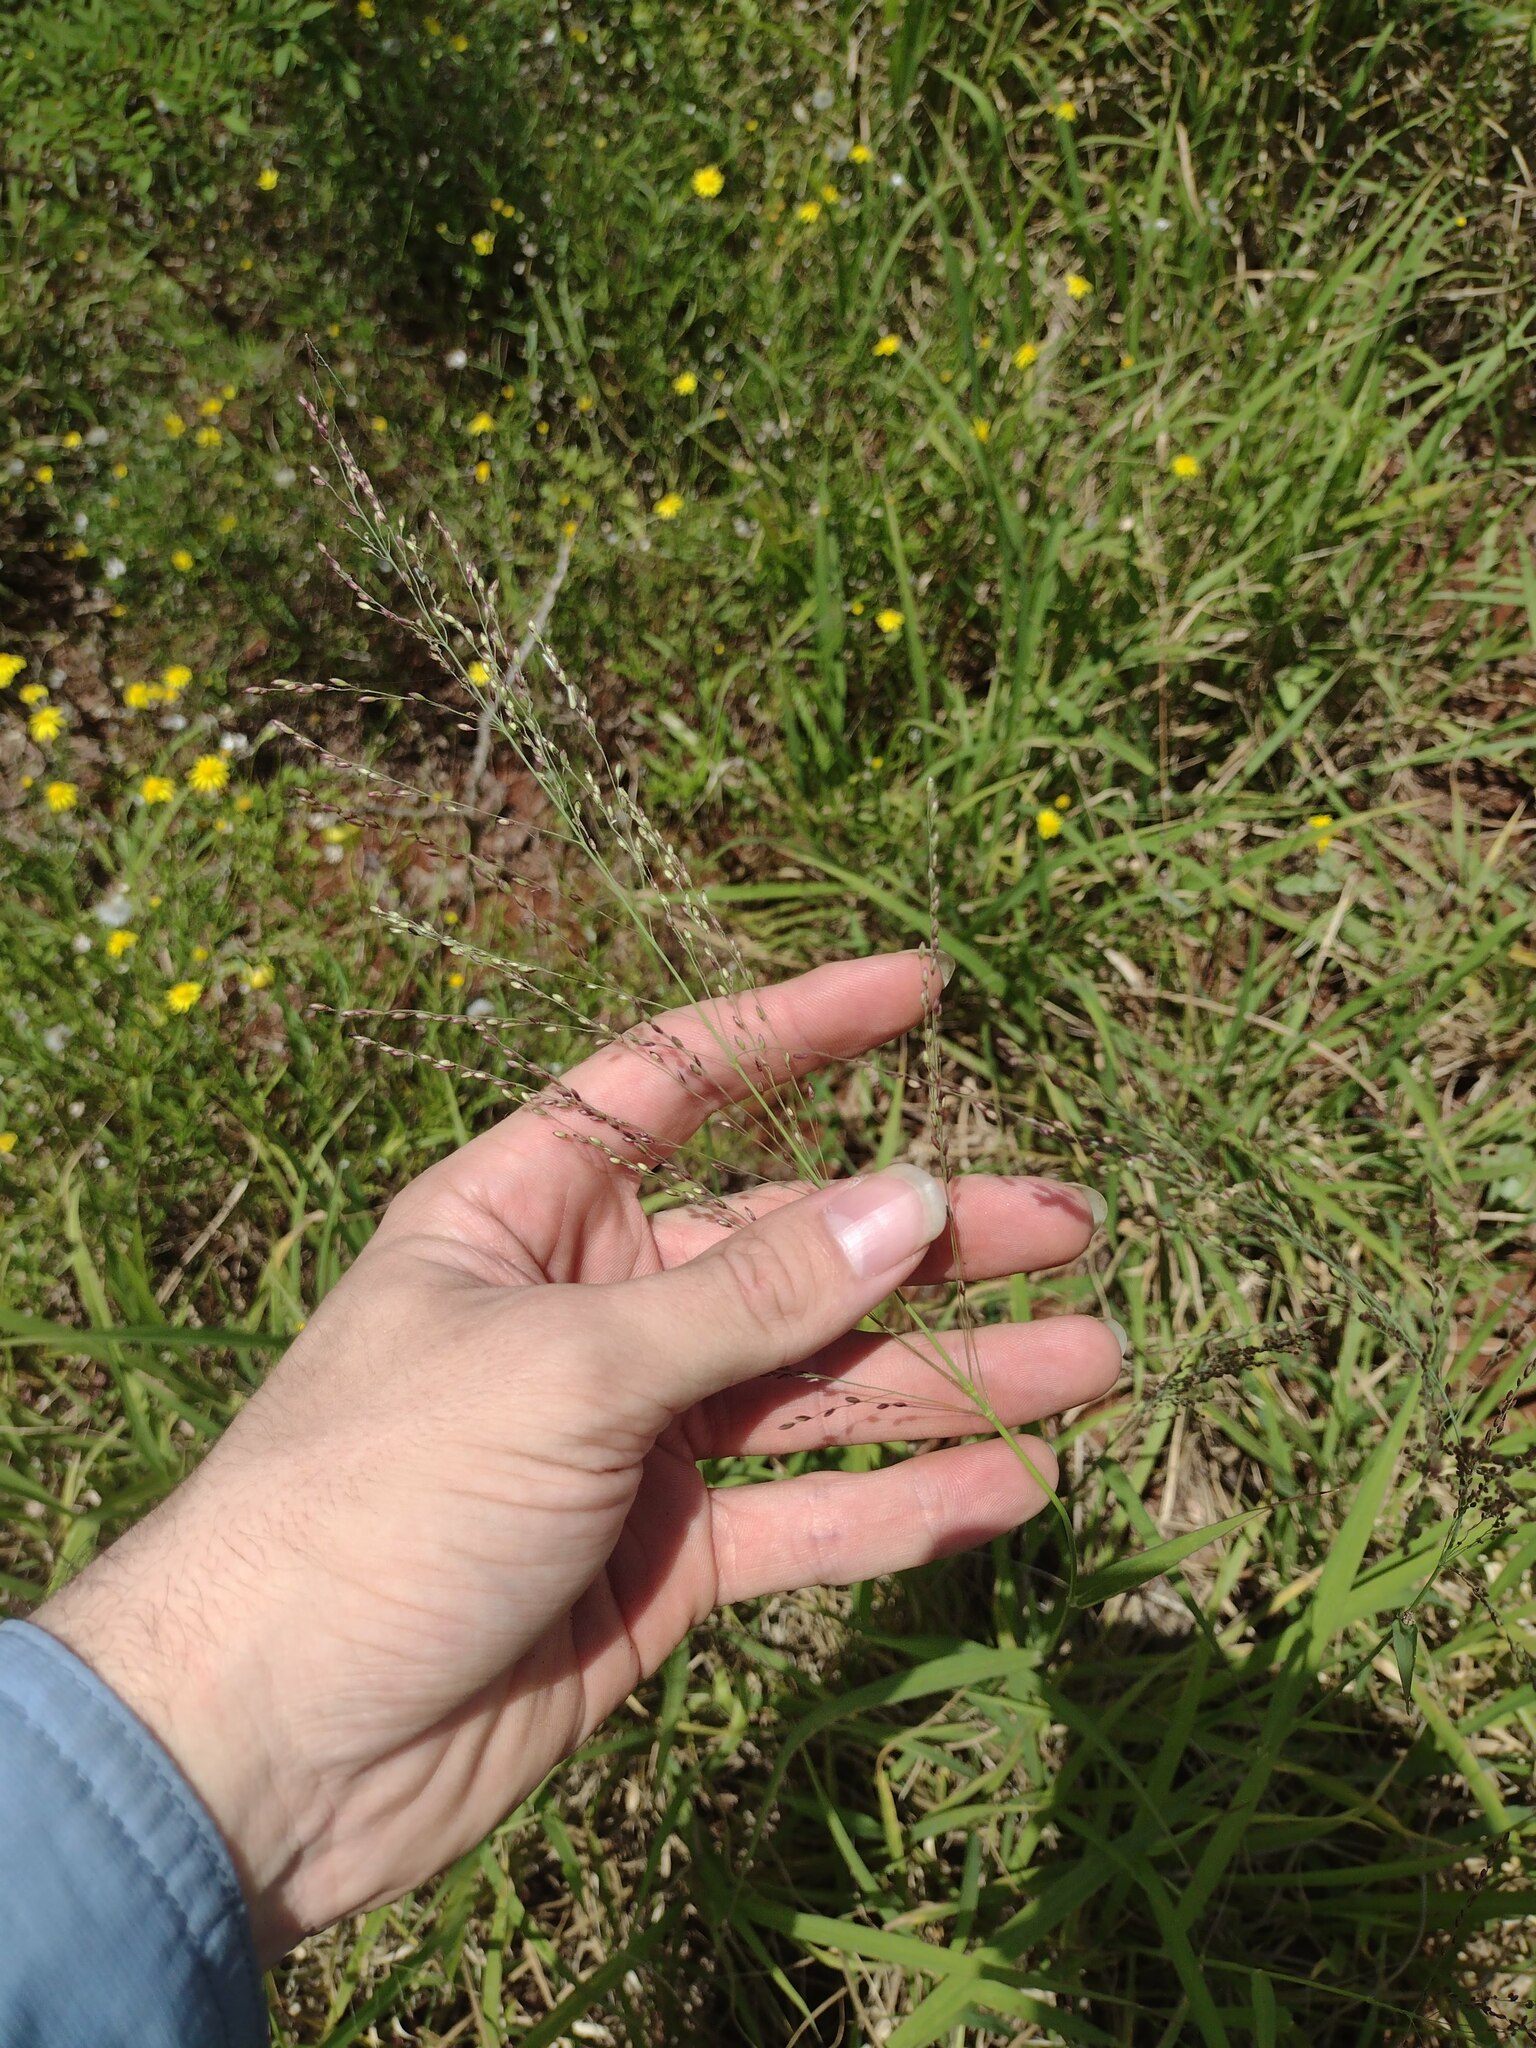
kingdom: Plantae
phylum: Tracheophyta
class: Liliopsida
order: Poales
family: Poaceae
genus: Megathyrsus
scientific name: Megathyrsus maximus
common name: Guineagrass
